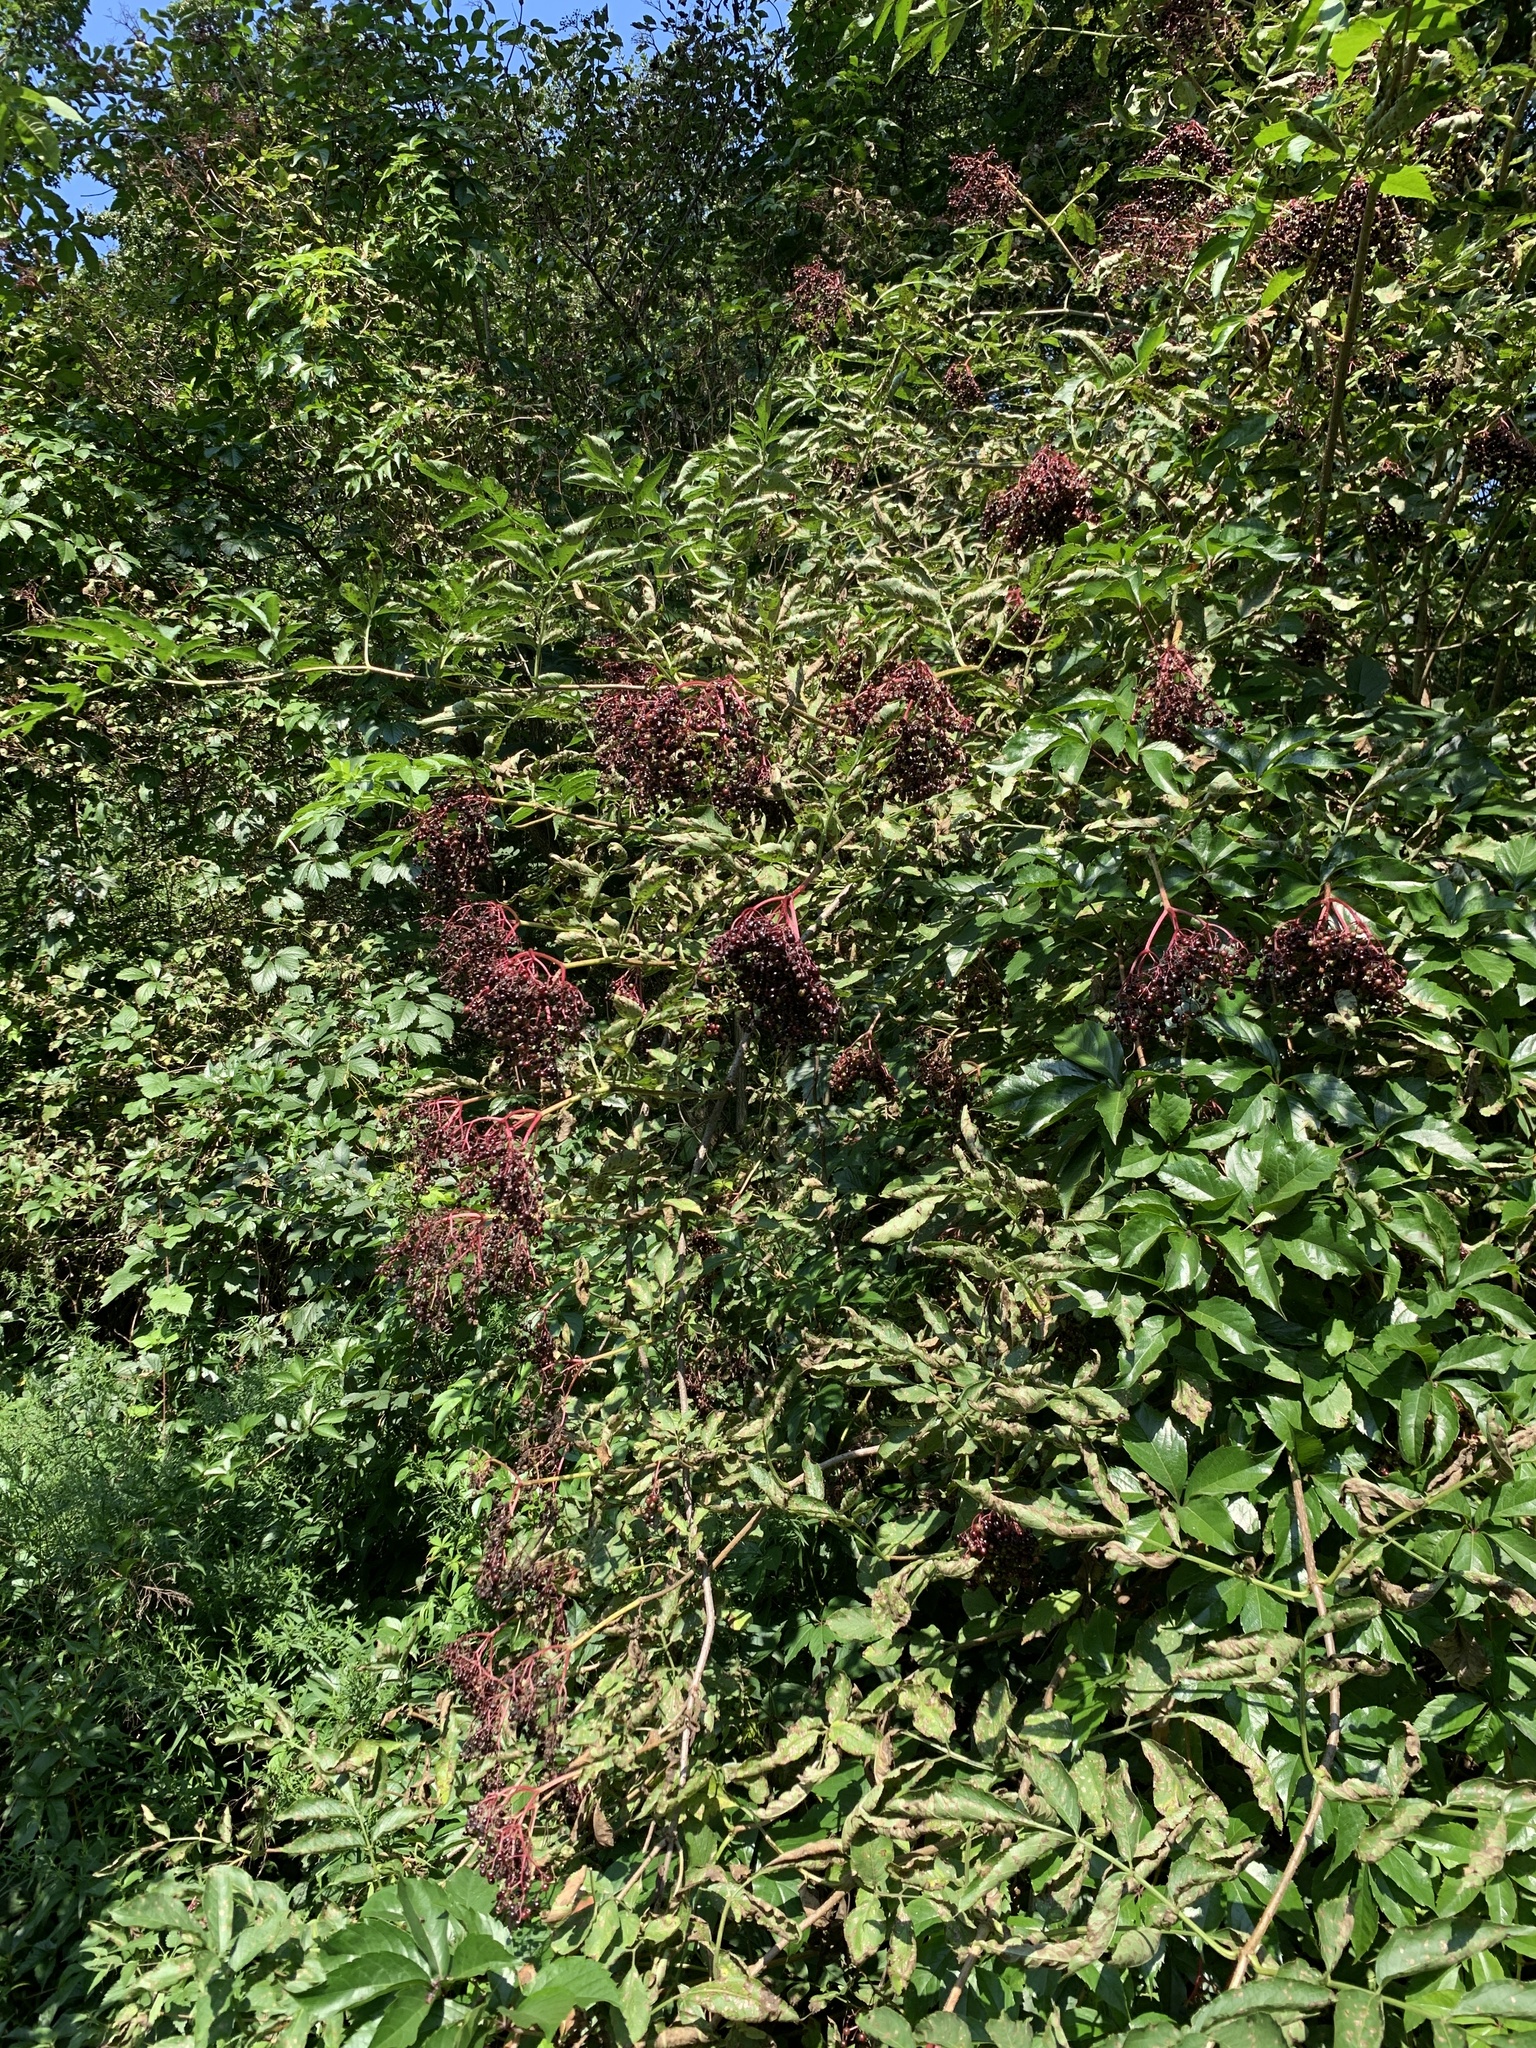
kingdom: Plantae
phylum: Tracheophyta
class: Magnoliopsida
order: Dipsacales
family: Viburnaceae
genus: Sambucus
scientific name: Sambucus nigra
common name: Elder
